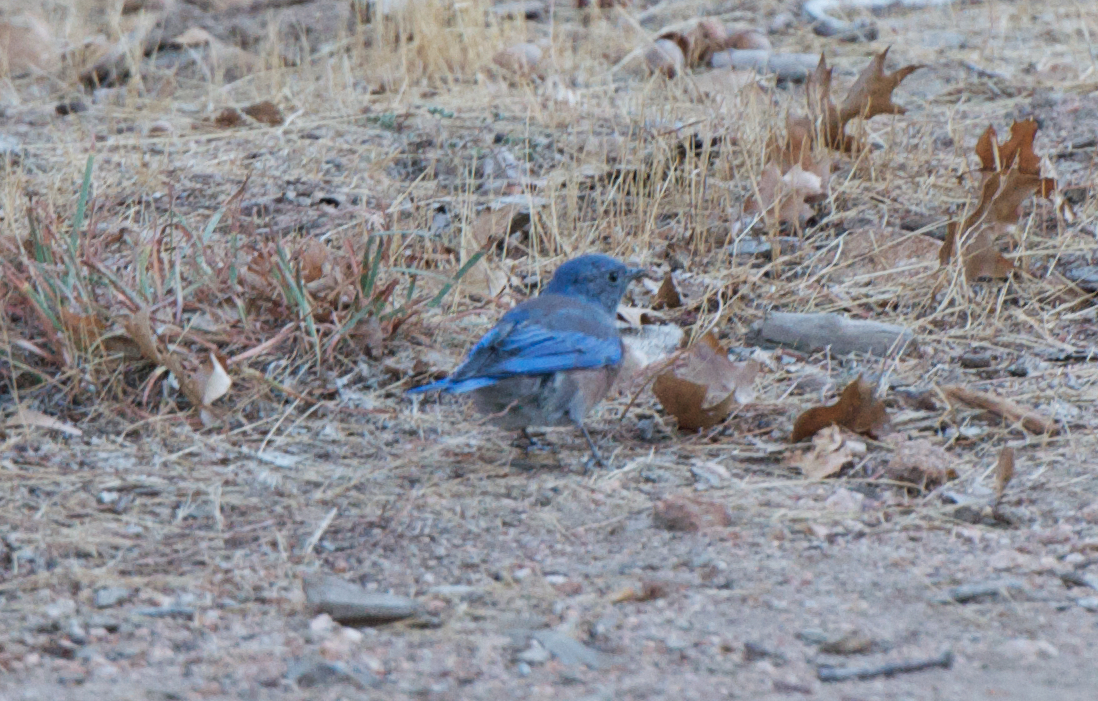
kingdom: Animalia
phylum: Chordata
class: Aves
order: Passeriformes
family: Turdidae
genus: Sialia
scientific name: Sialia mexicana
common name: Western bluebird
